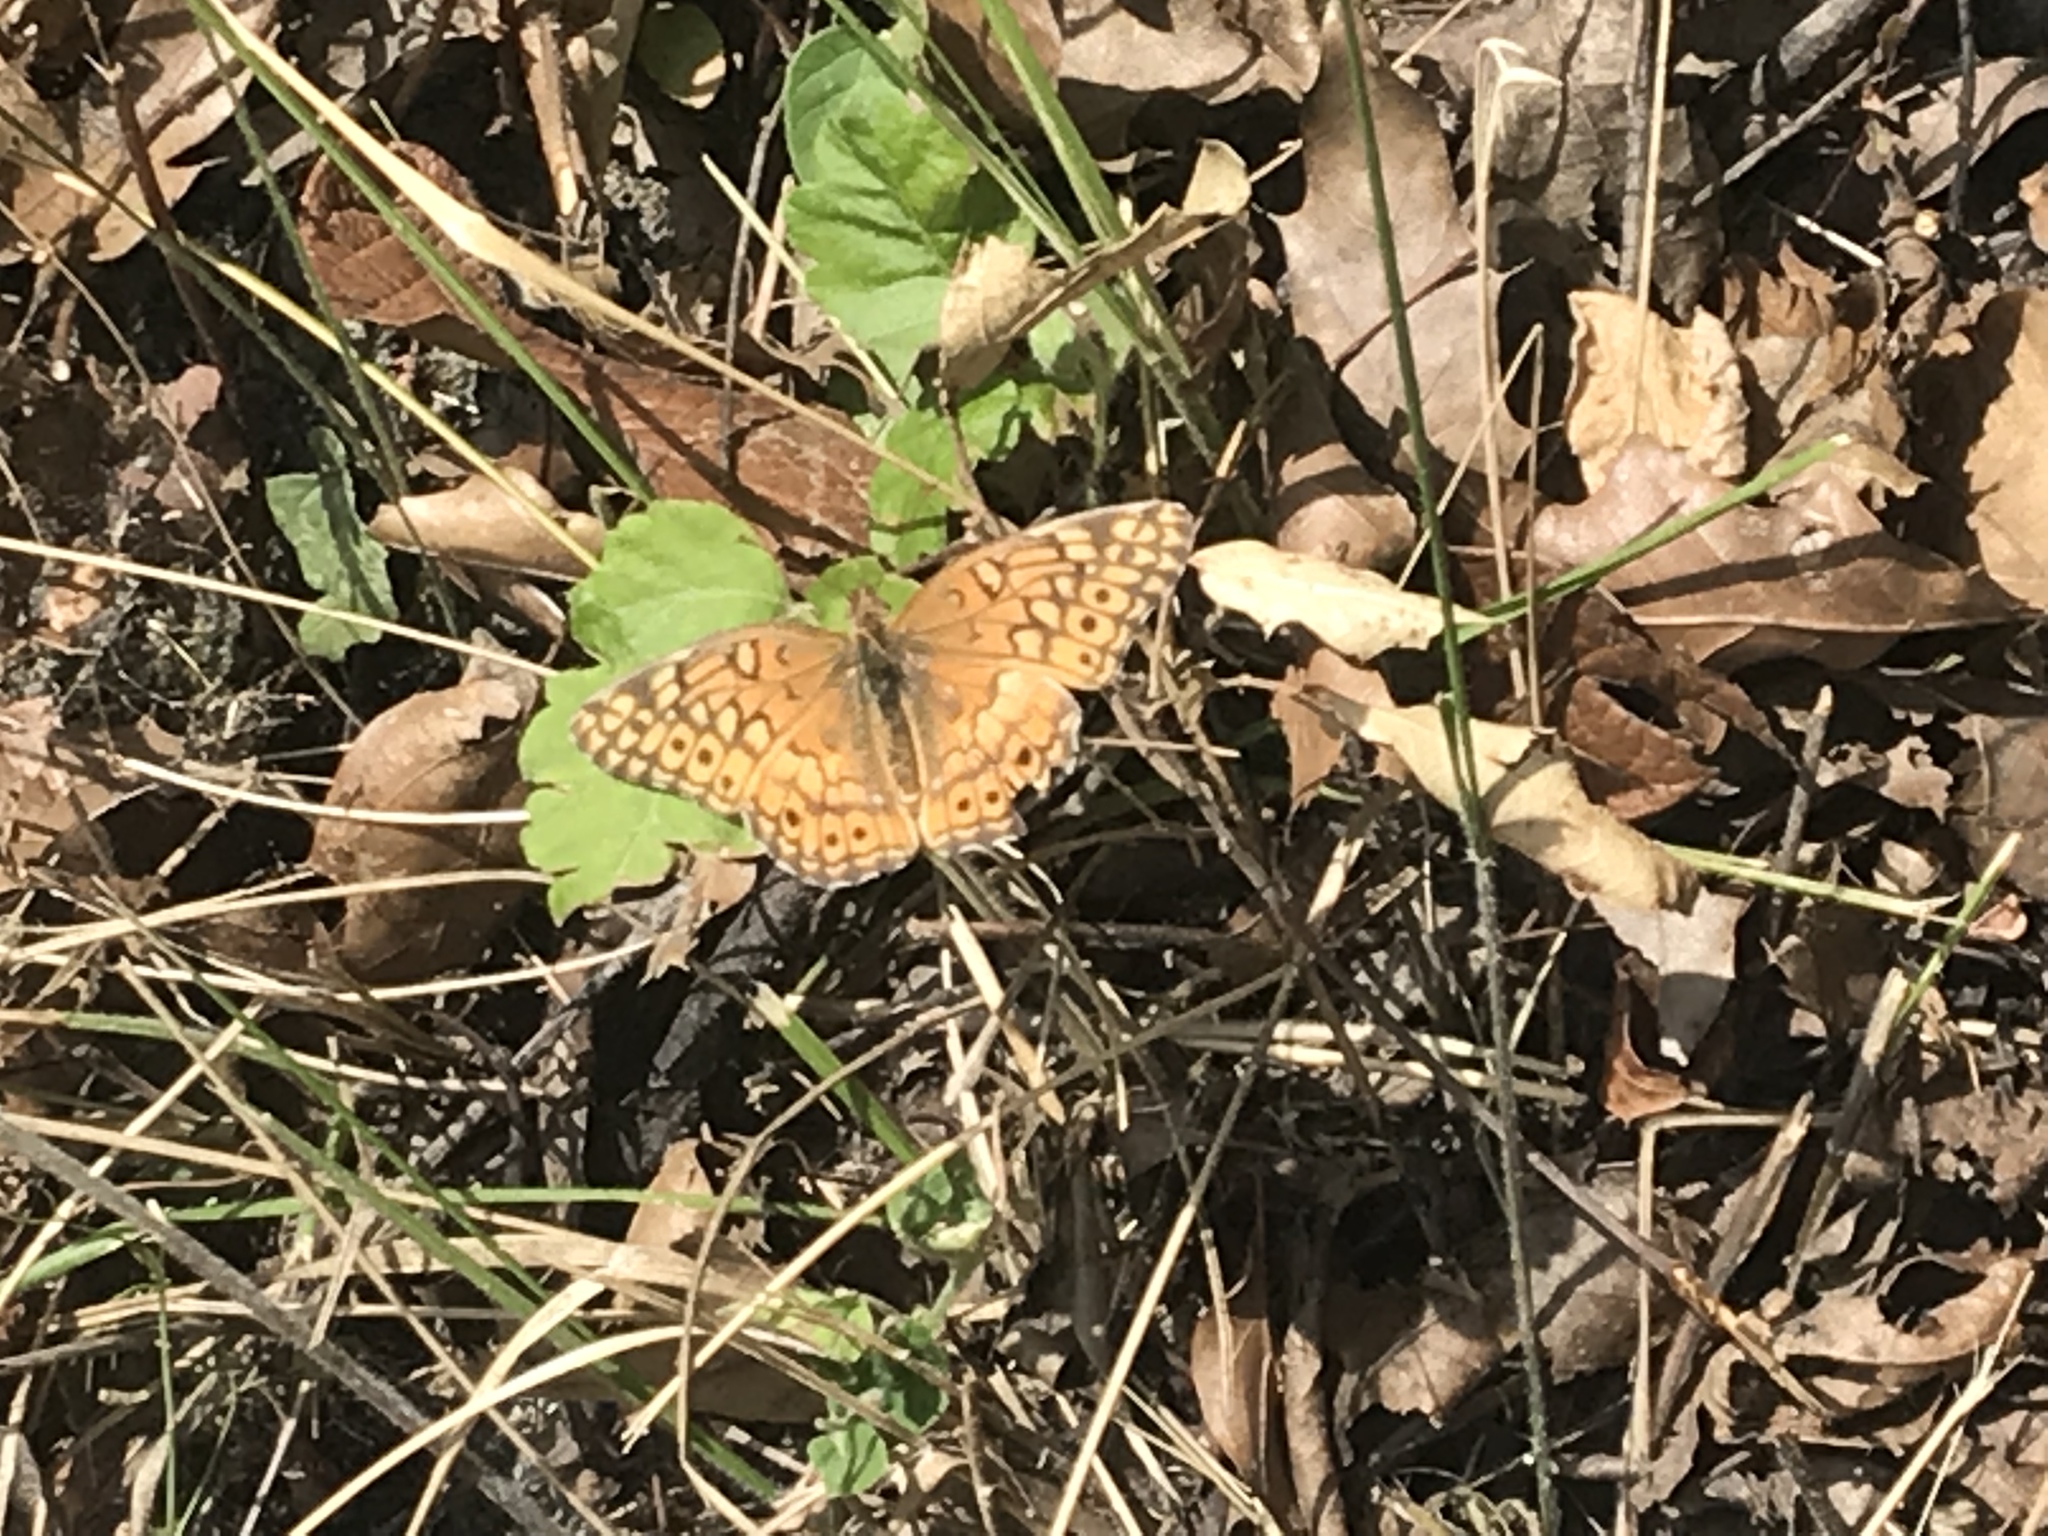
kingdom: Animalia
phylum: Arthropoda
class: Insecta
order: Lepidoptera
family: Nymphalidae
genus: Euptoieta
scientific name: Euptoieta claudia
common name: Variegated fritillary
